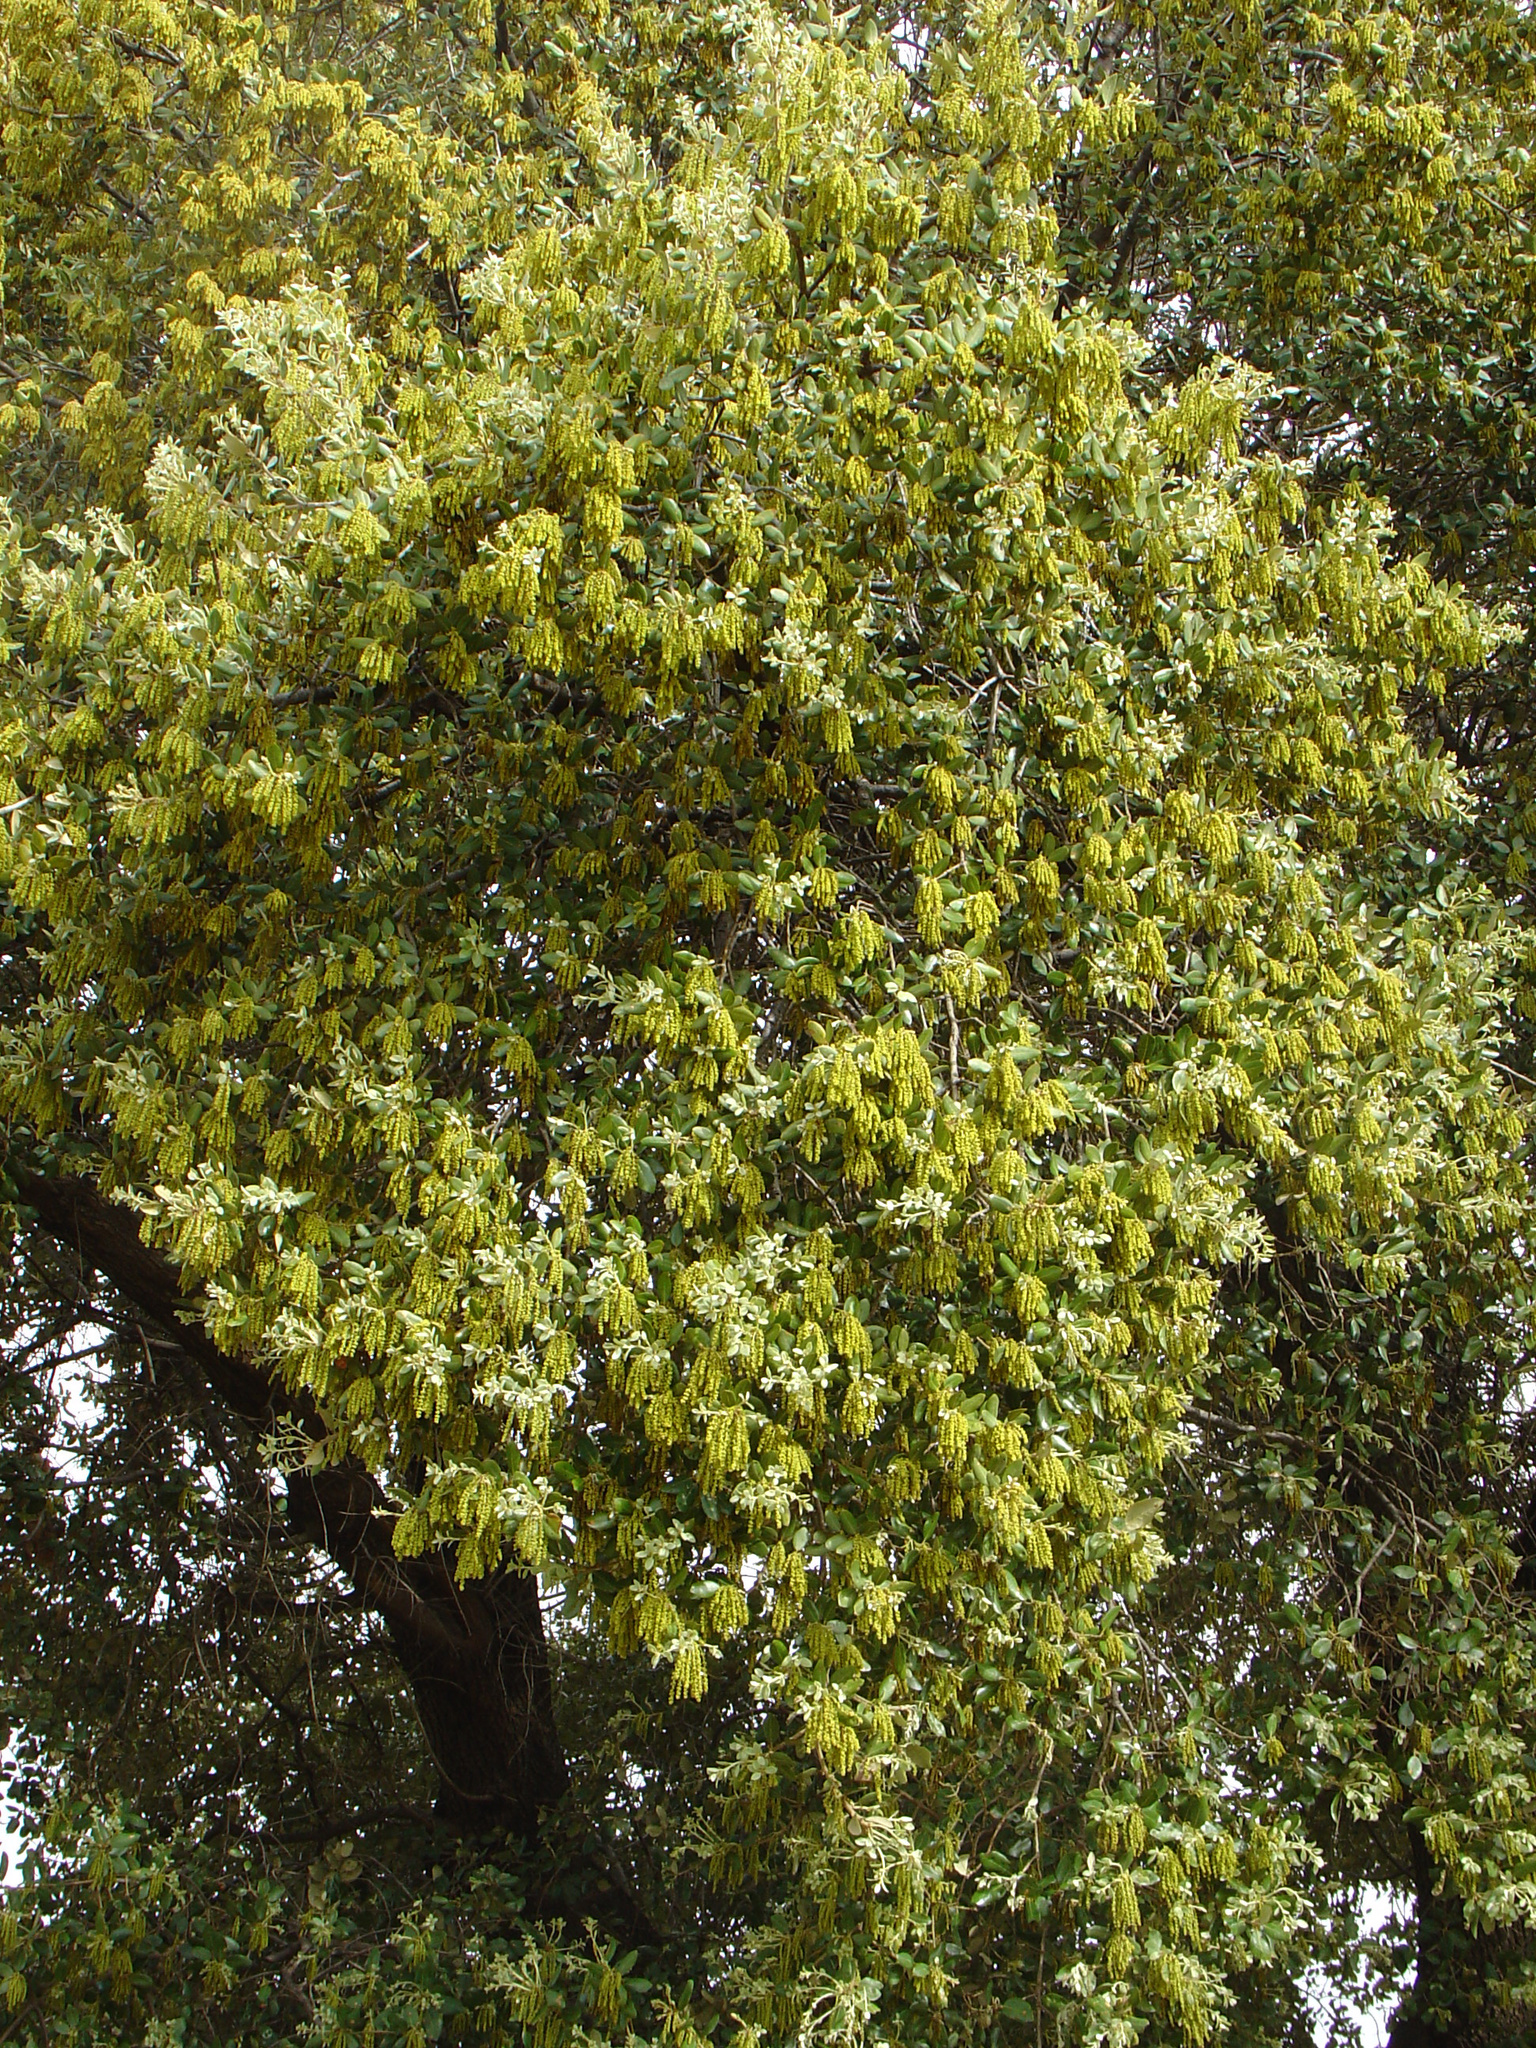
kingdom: Plantae
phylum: Tracheophyta
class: Magnoliopsida
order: Fagales
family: Fagaceae
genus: Quercus
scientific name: Quercus rotundifolia
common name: Holm oak
